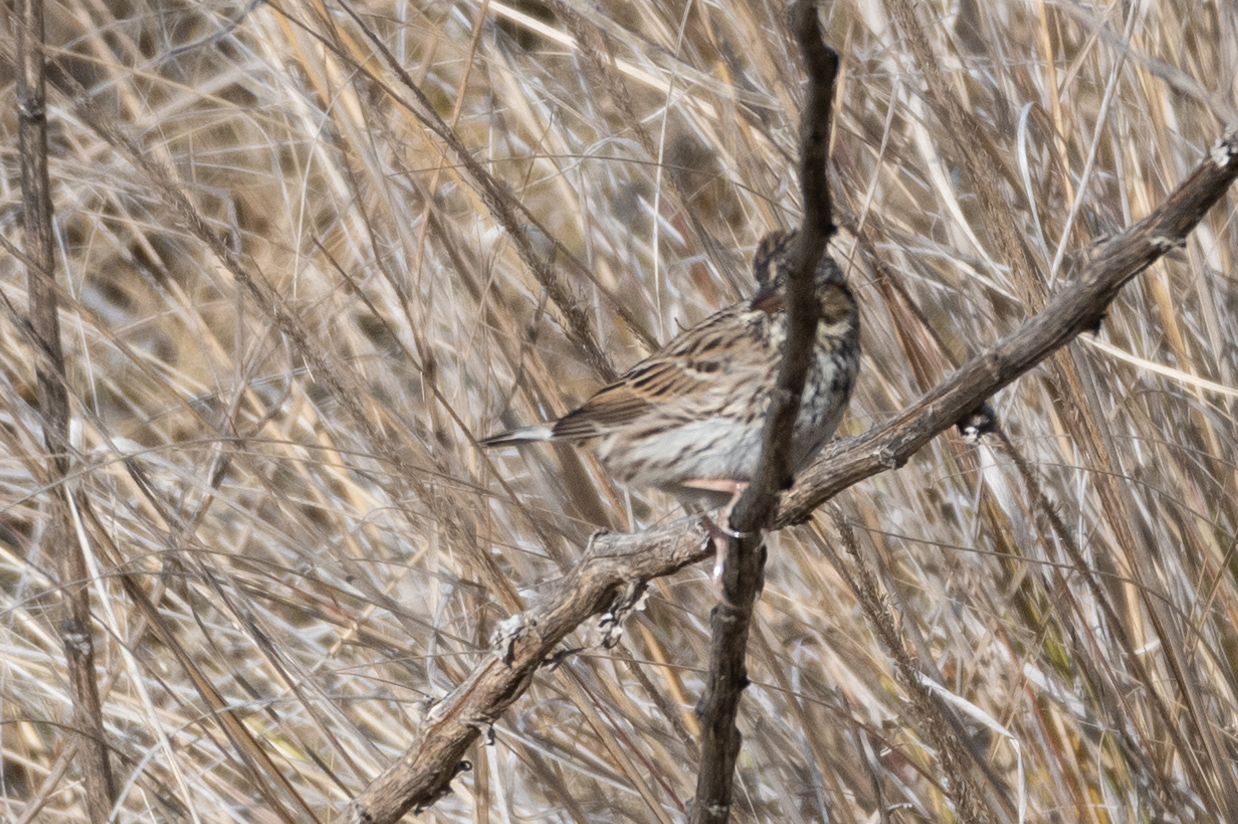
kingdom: Animalia
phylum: Chordata
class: Aves
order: Passeriformes
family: Passerellidae
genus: Passerculus
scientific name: Passerculus sandwichensis
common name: Savannah sparrow
